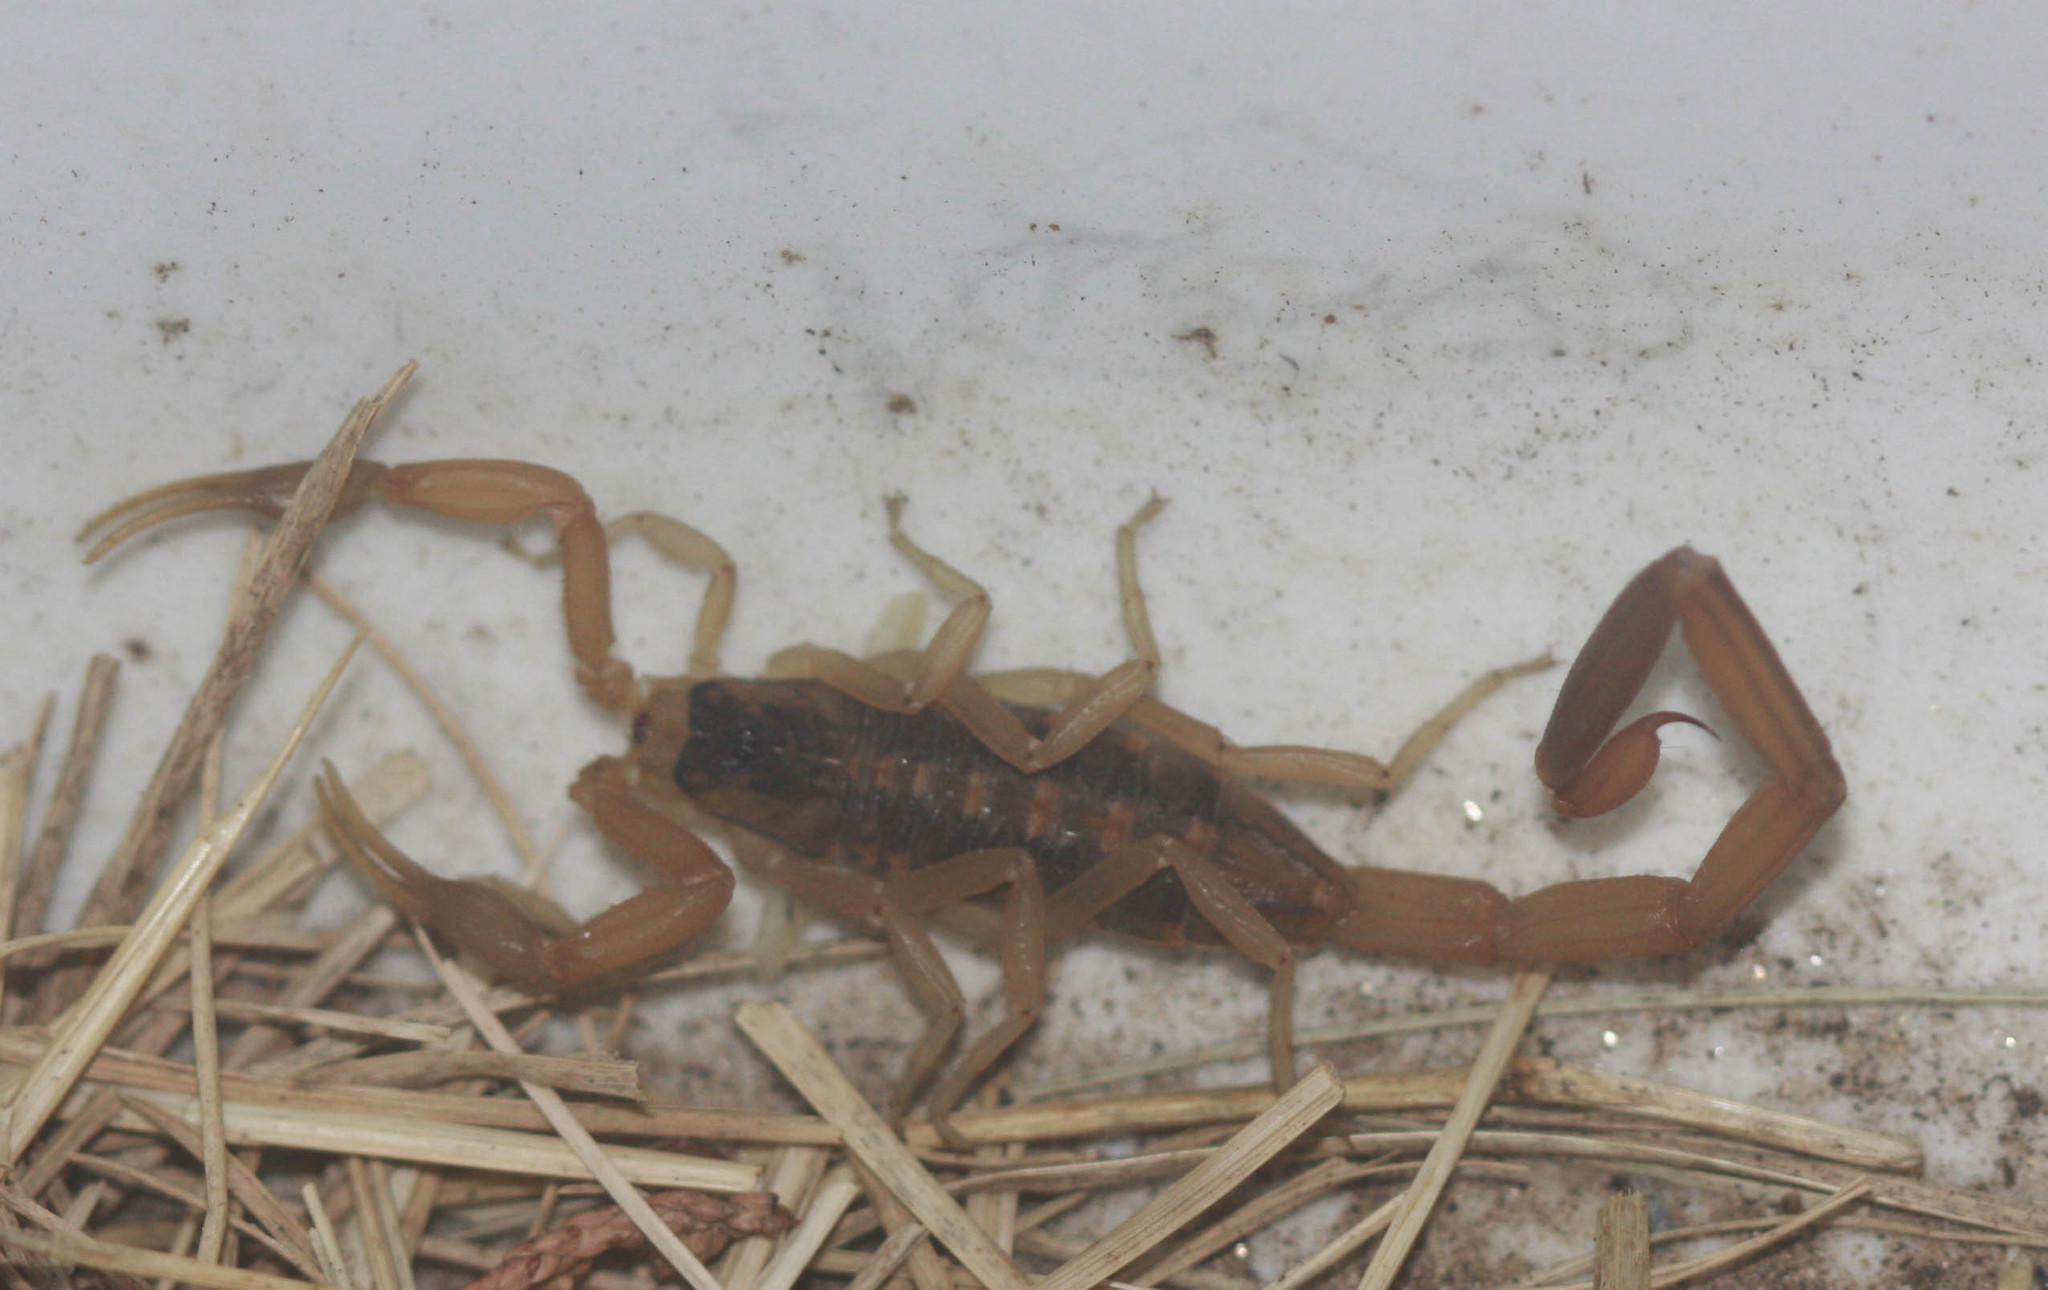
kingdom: Animalia
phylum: Arthropoda
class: Arachnida
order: Scorpiones
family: Buthidae
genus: Centruroides
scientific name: Centruroides vittatus
